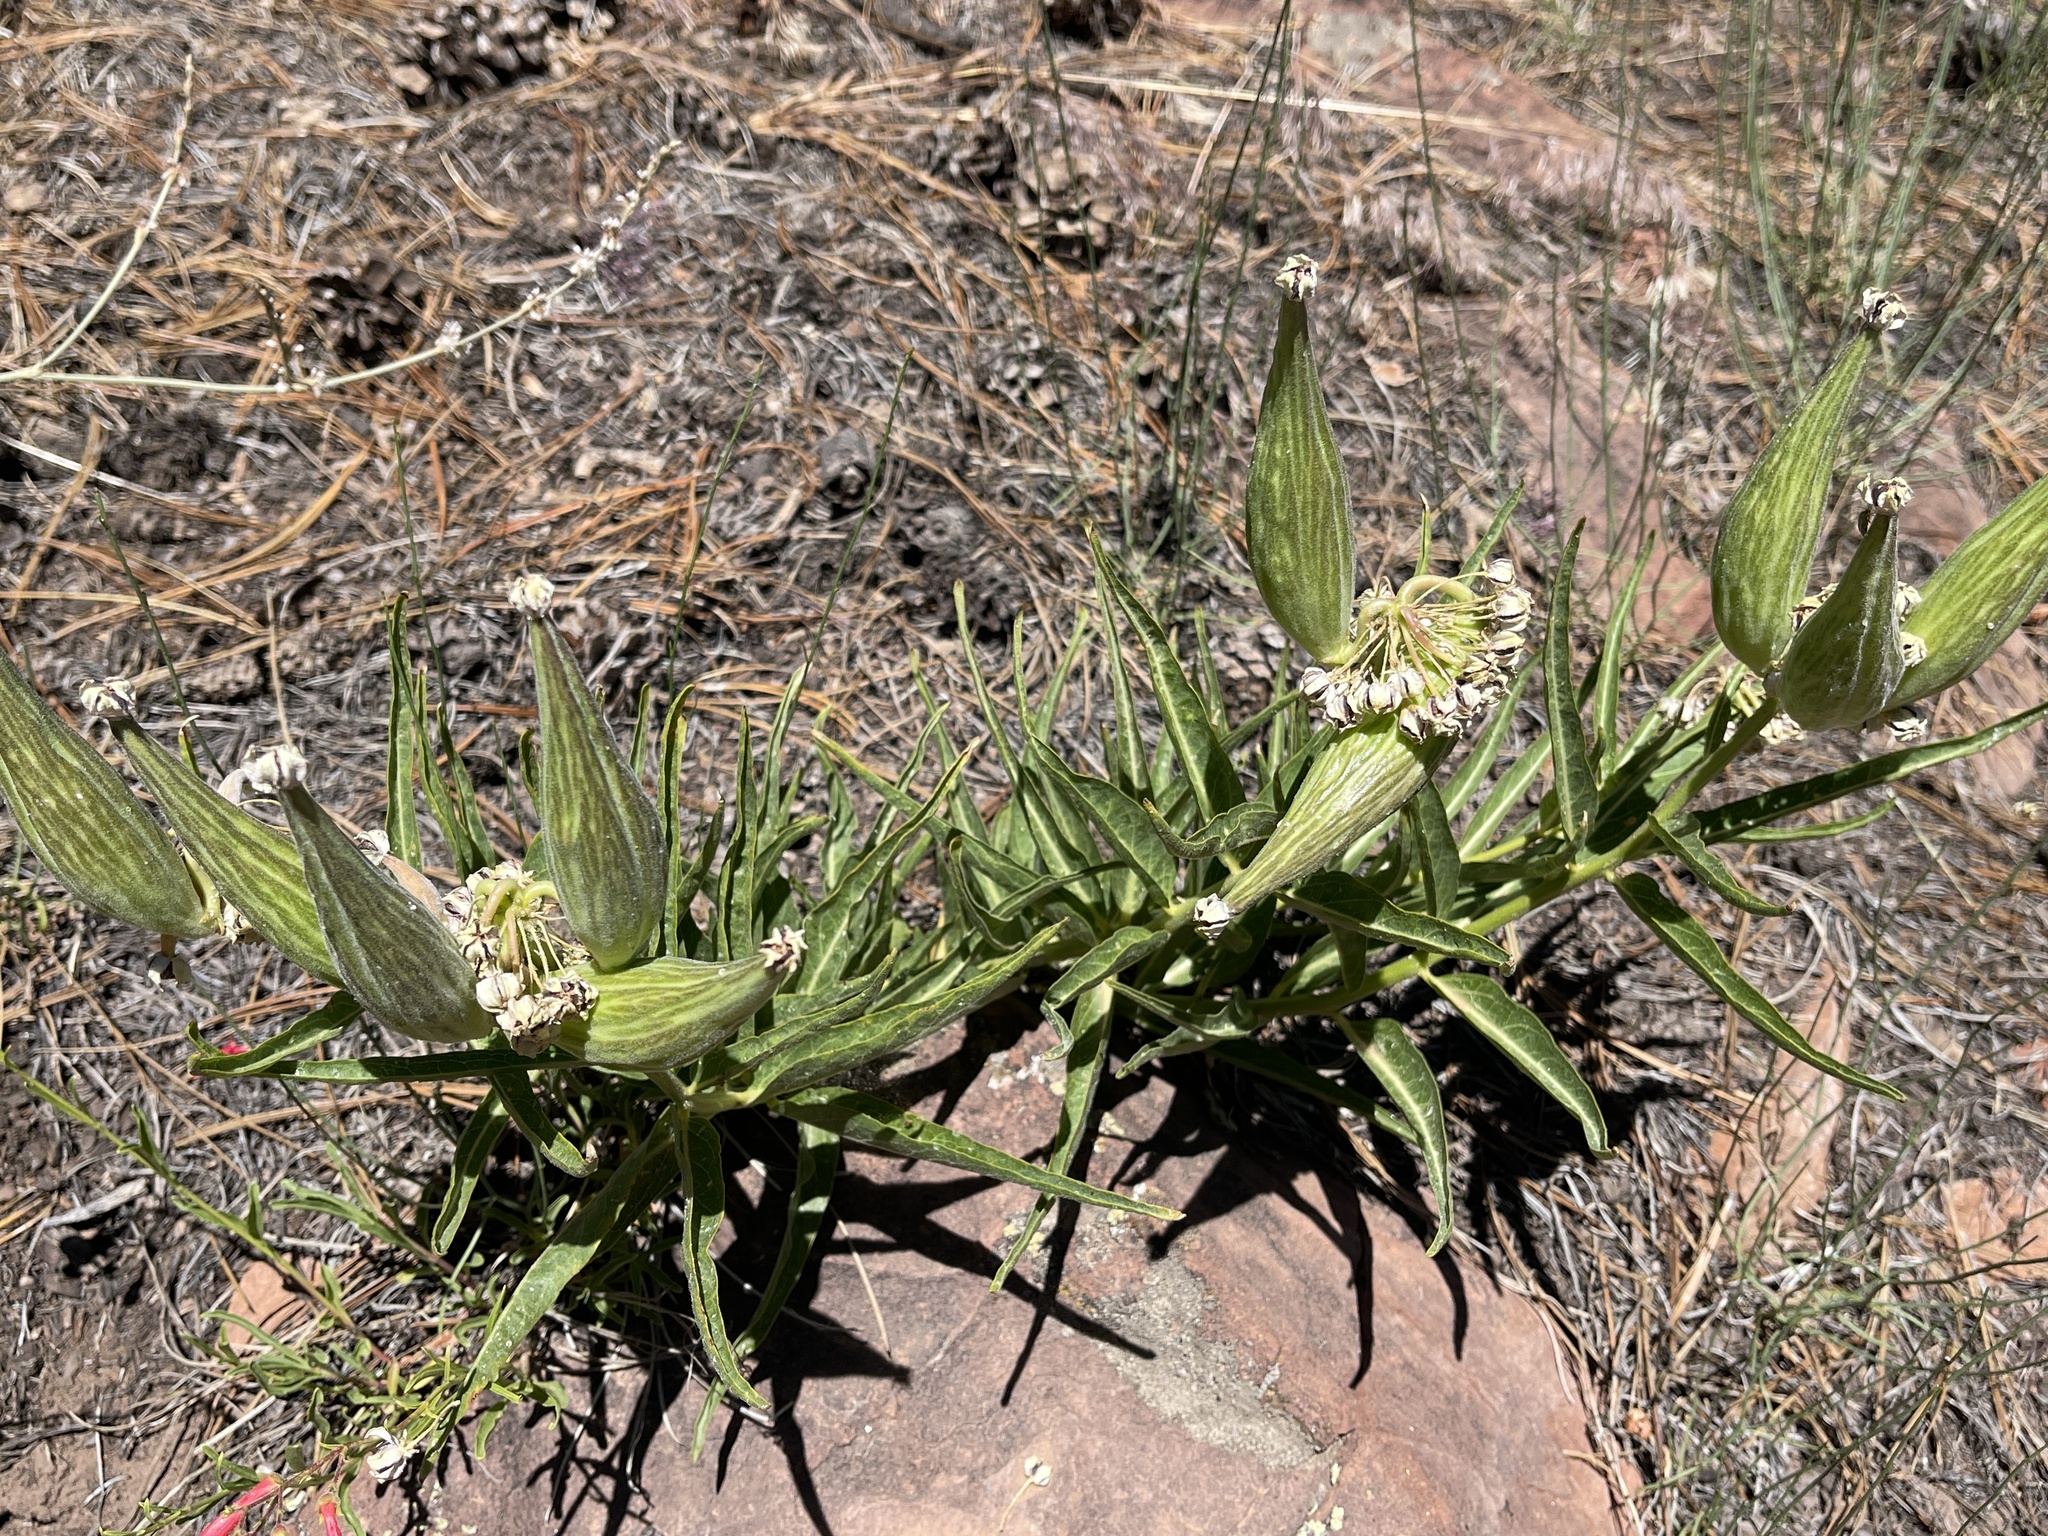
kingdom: Plantae
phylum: Tracheophyta
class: Magnoliopsida
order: Gentianales
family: Apocynaceae
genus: Asclepias
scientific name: Asclepias asperula
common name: Antelope horns
